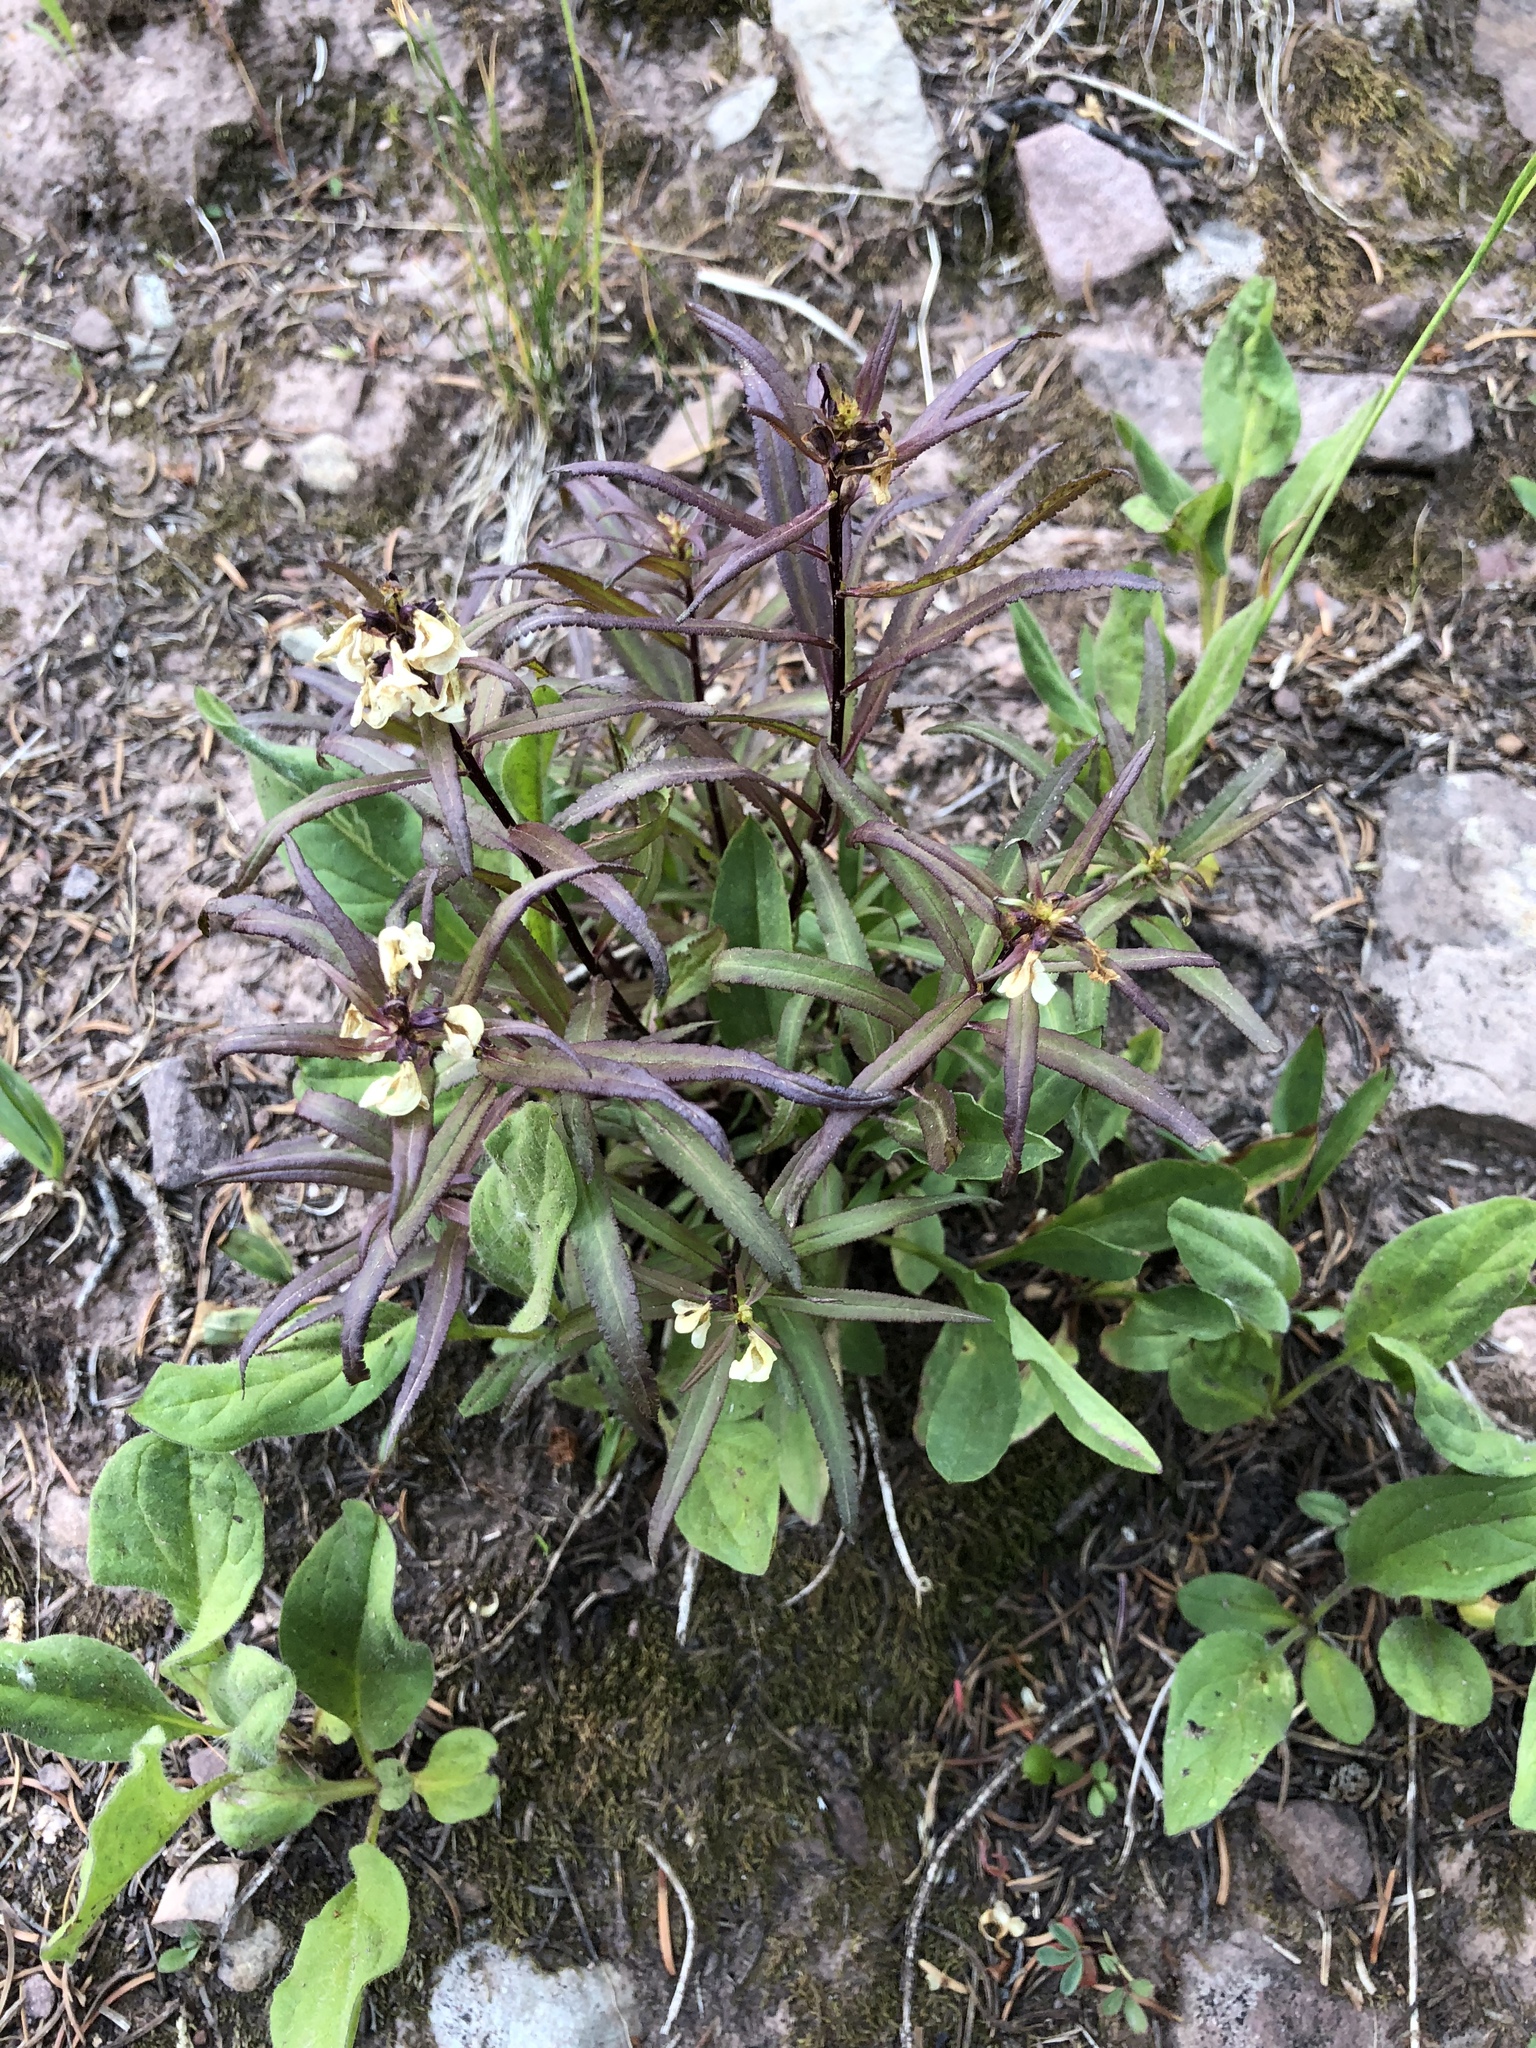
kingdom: Plantae
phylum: Tracheophyta
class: Magnoliopsida
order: Lamiales
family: Orobanchaceae
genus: Pedicularis
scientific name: Pedicularis racemosa
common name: Leafy lousewort
